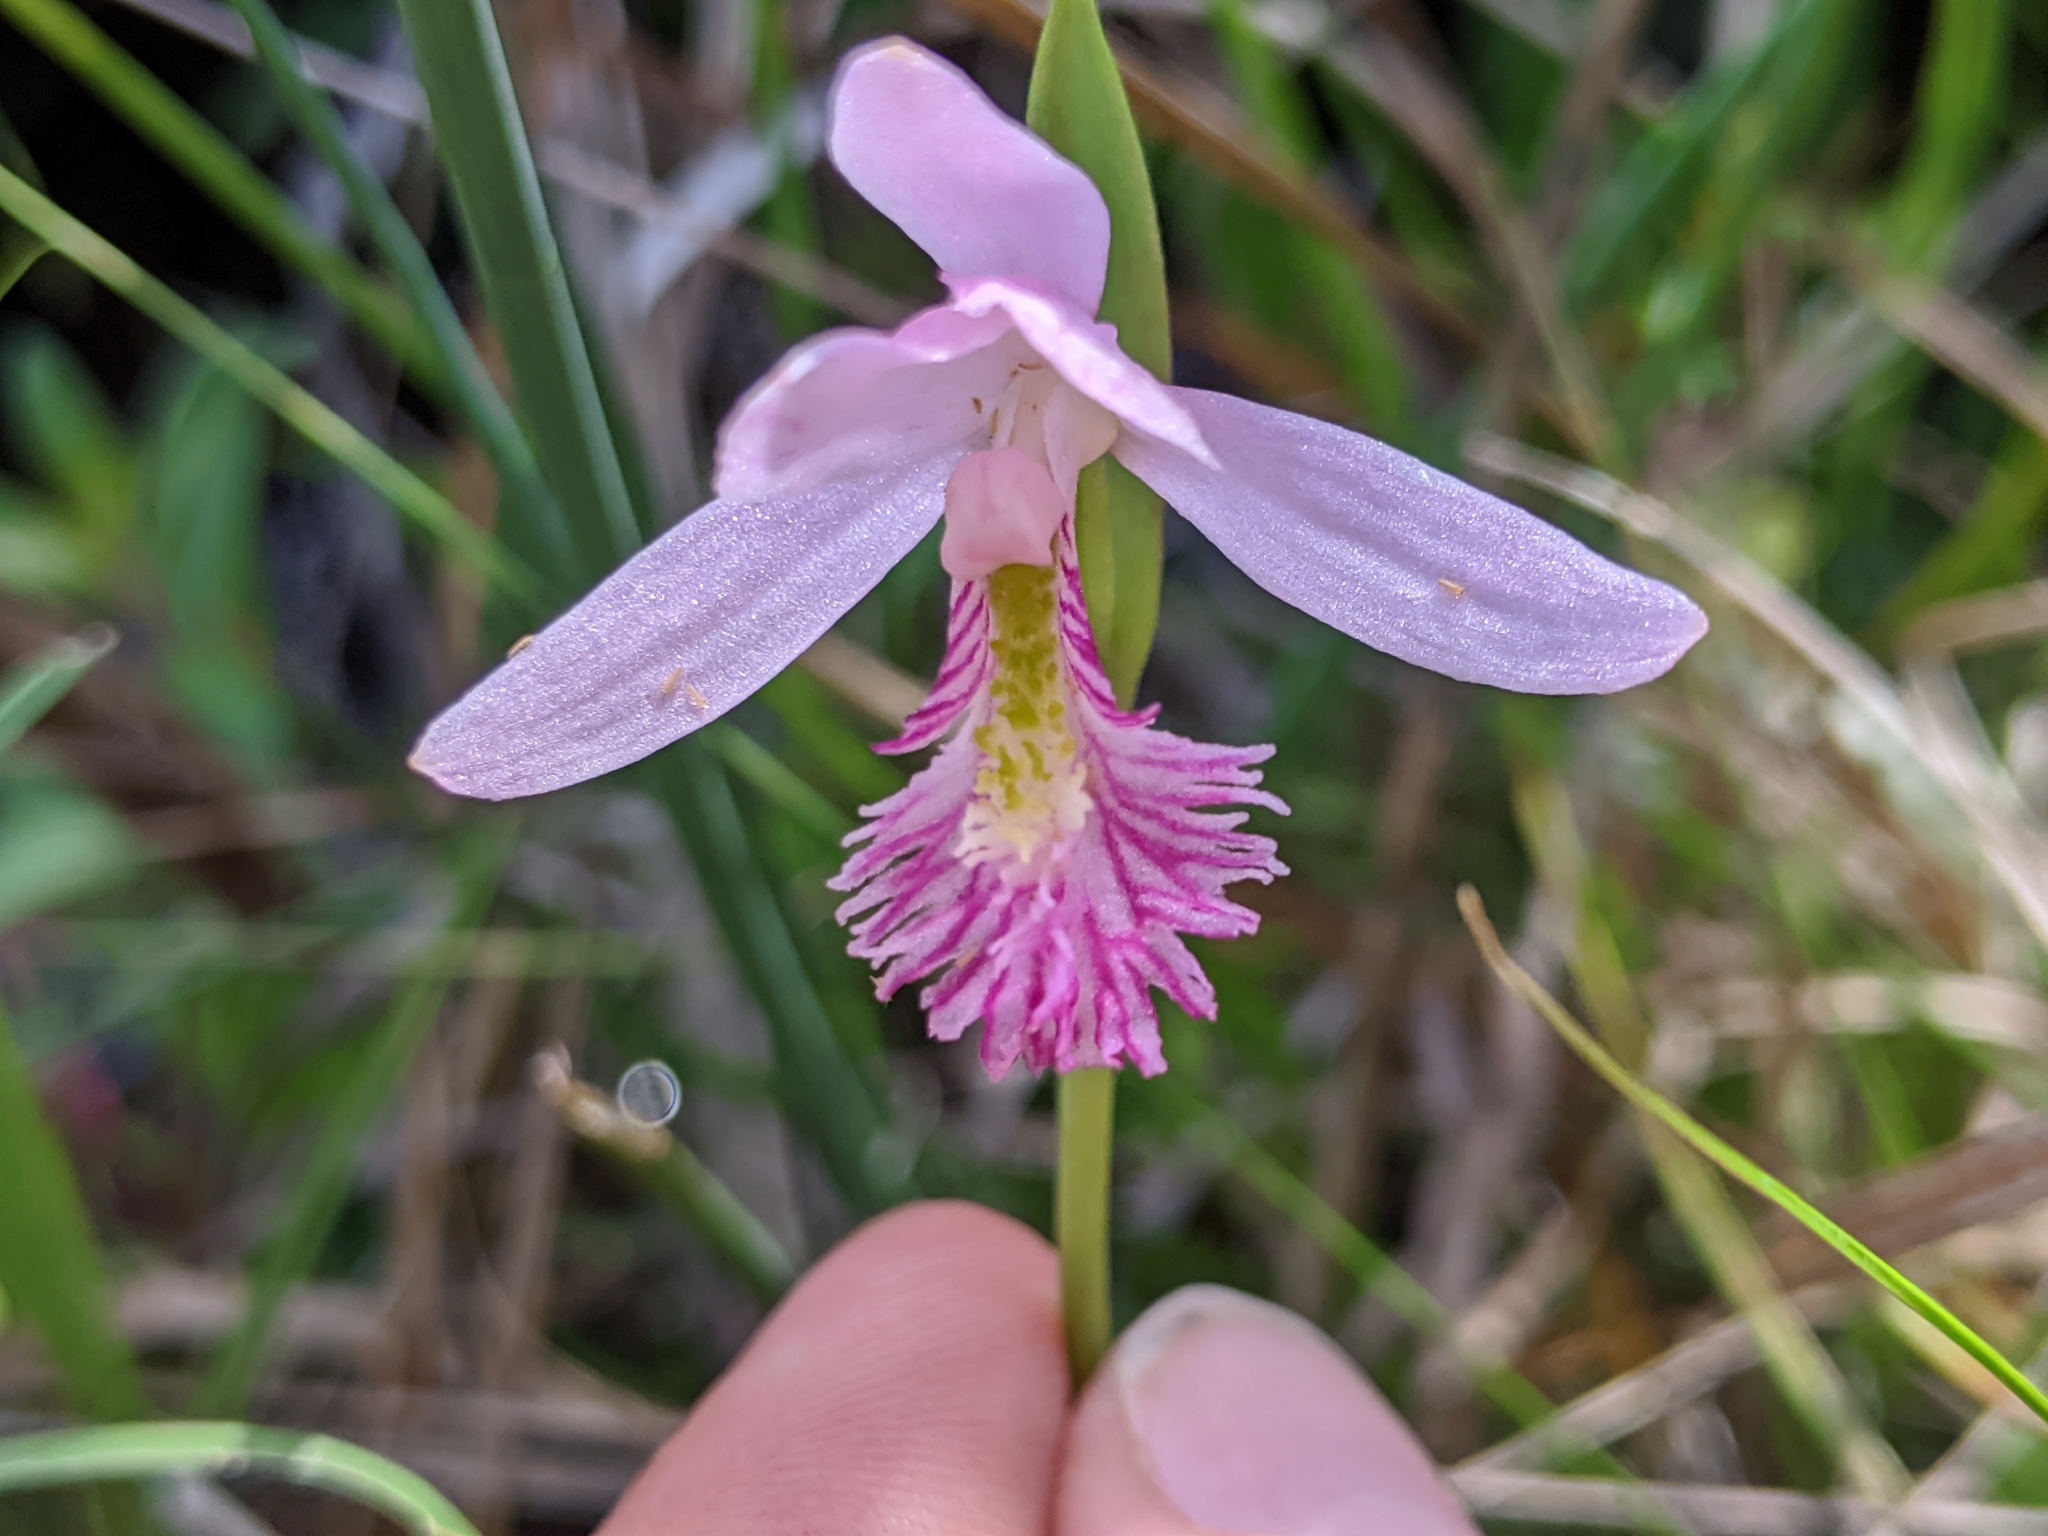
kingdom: Plantae
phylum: Tracheophyta
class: Liliopsida
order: Asparagales
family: Orchidaceae
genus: Pogonia
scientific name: Pogonia ophioglossoides
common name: Rose pogonia
